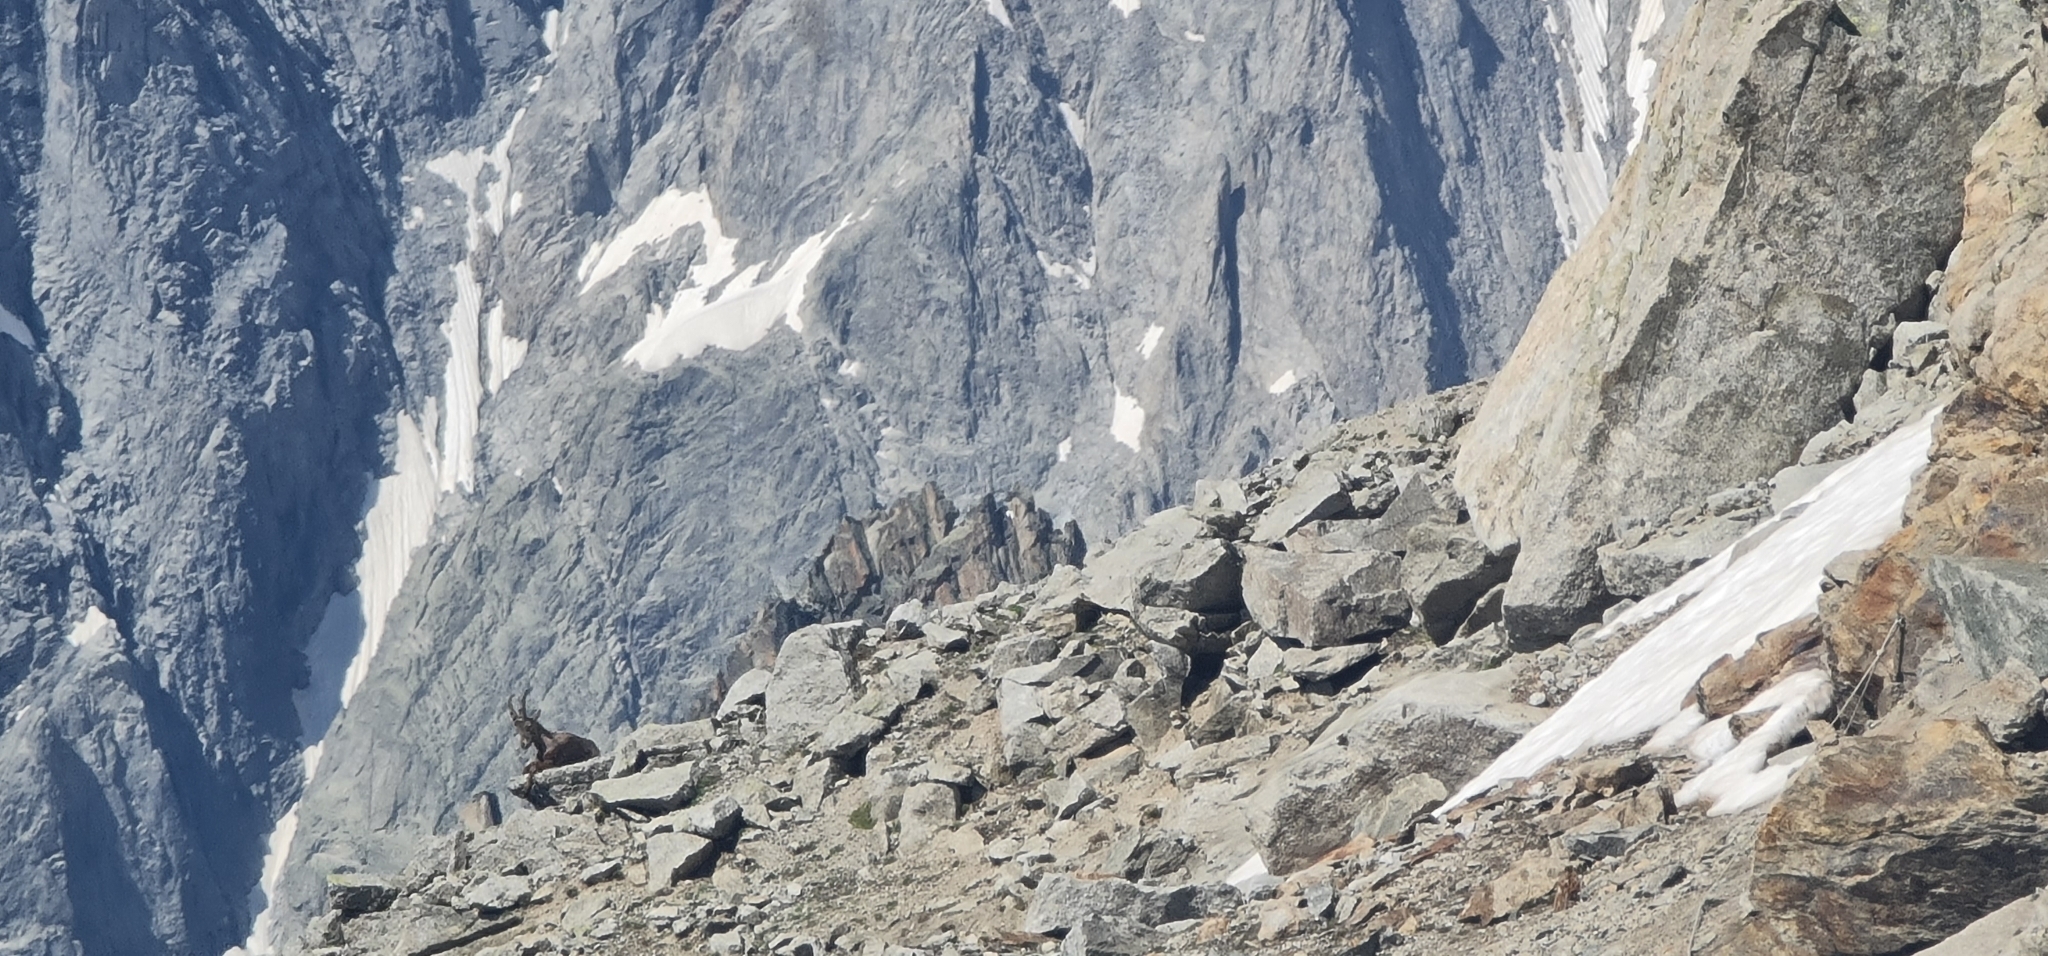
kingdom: Animalia
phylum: Chordata
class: Mammalia
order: Artiodactyla
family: Bovidae
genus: Capra
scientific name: Capra ibex
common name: Alpine ibex
